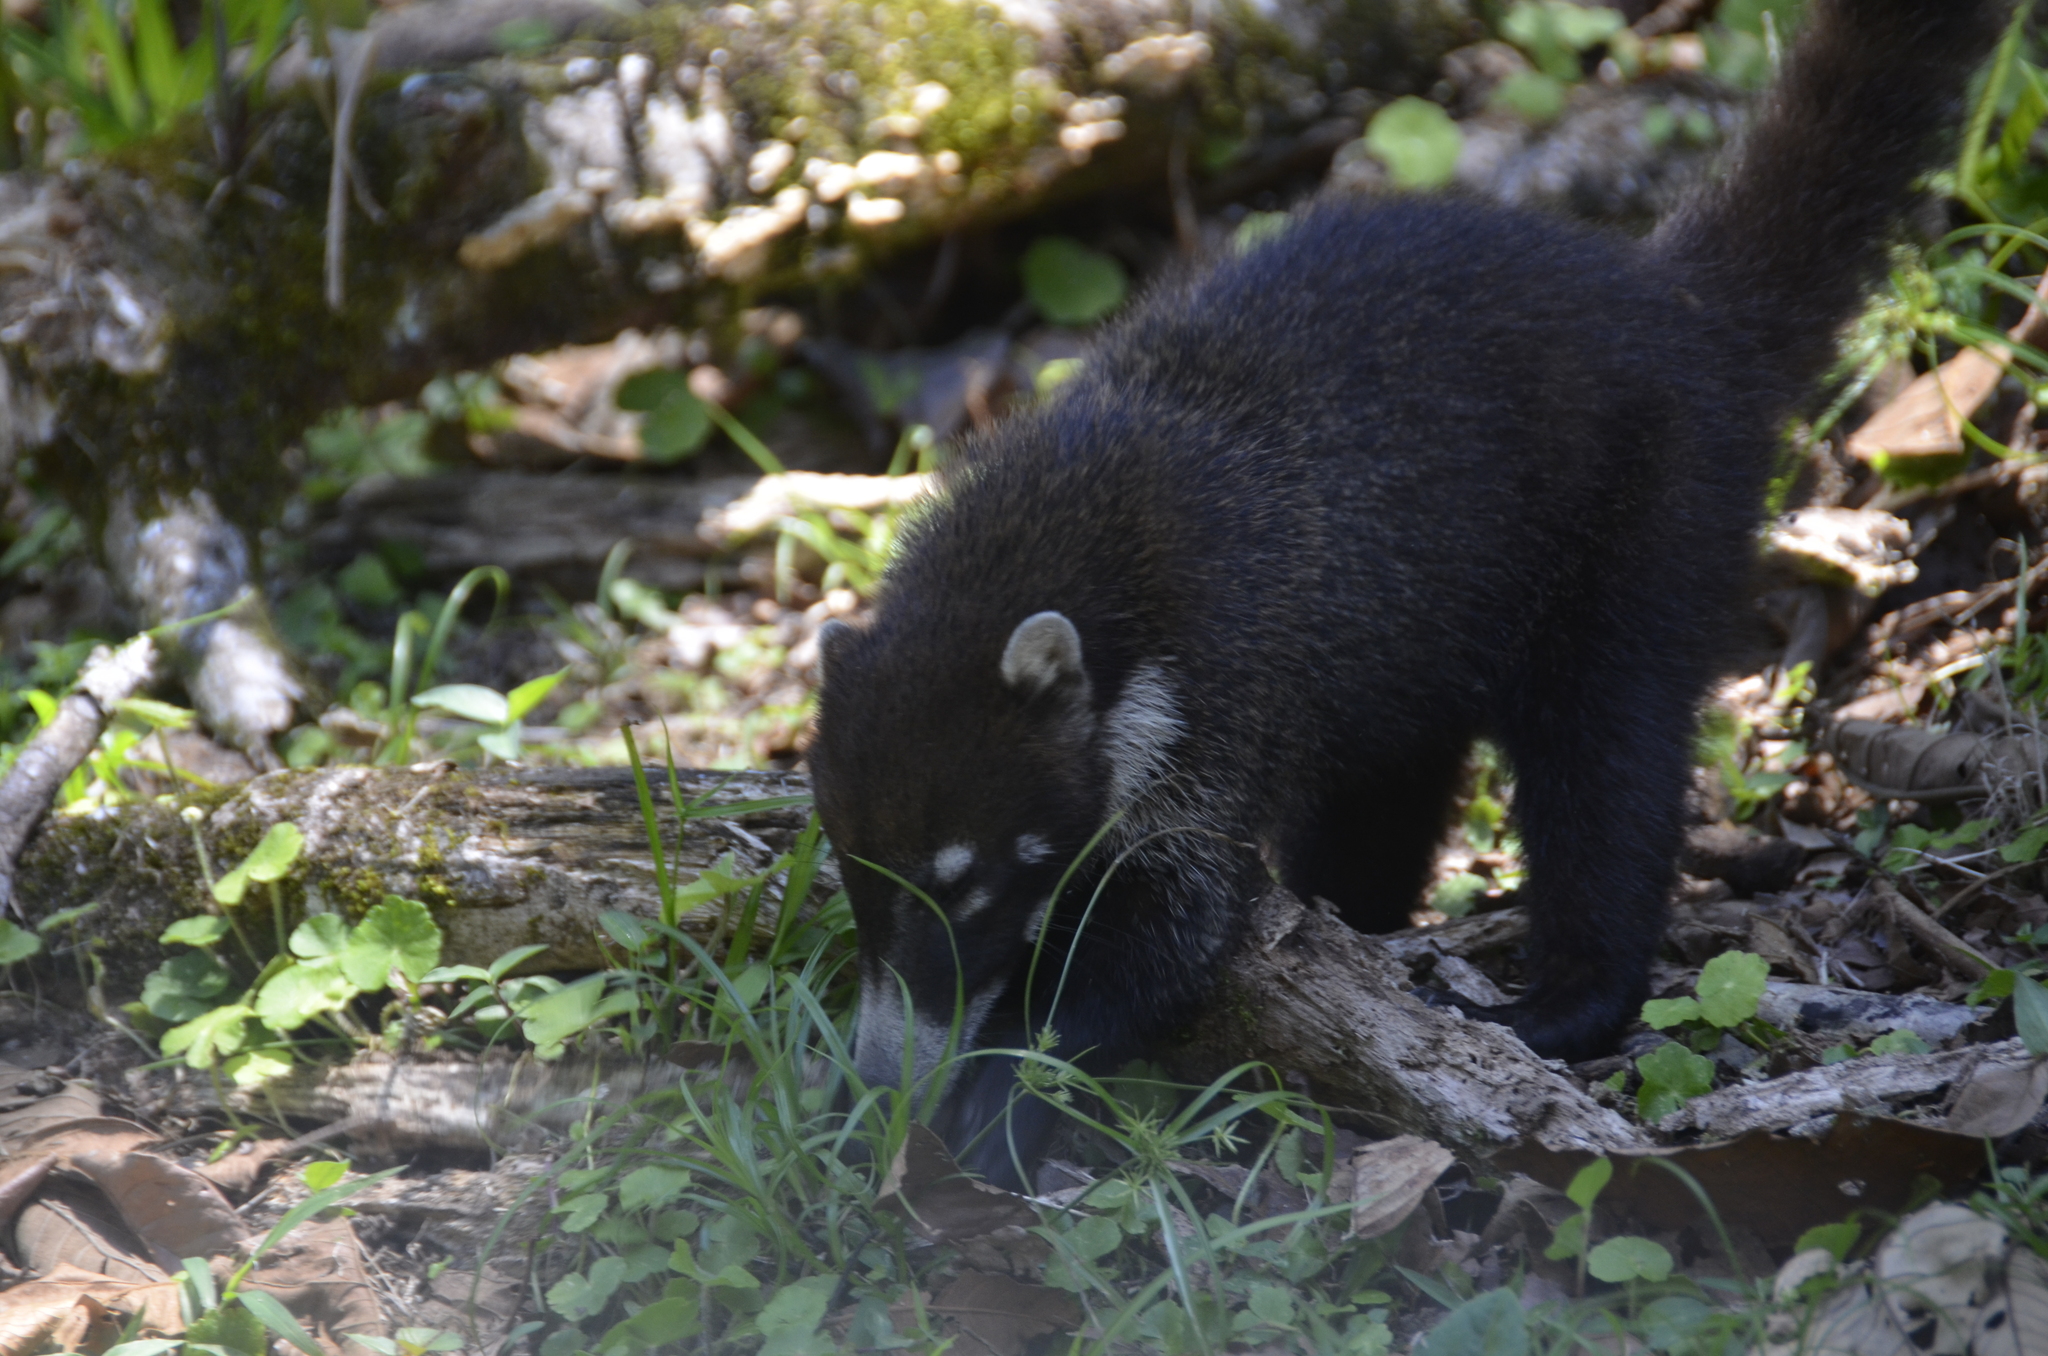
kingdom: Animalia
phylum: Chordata
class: Mammalia
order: Carnivora
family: Procyonidae
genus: Nasua
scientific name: Nasua narica
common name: White-nosed coati
